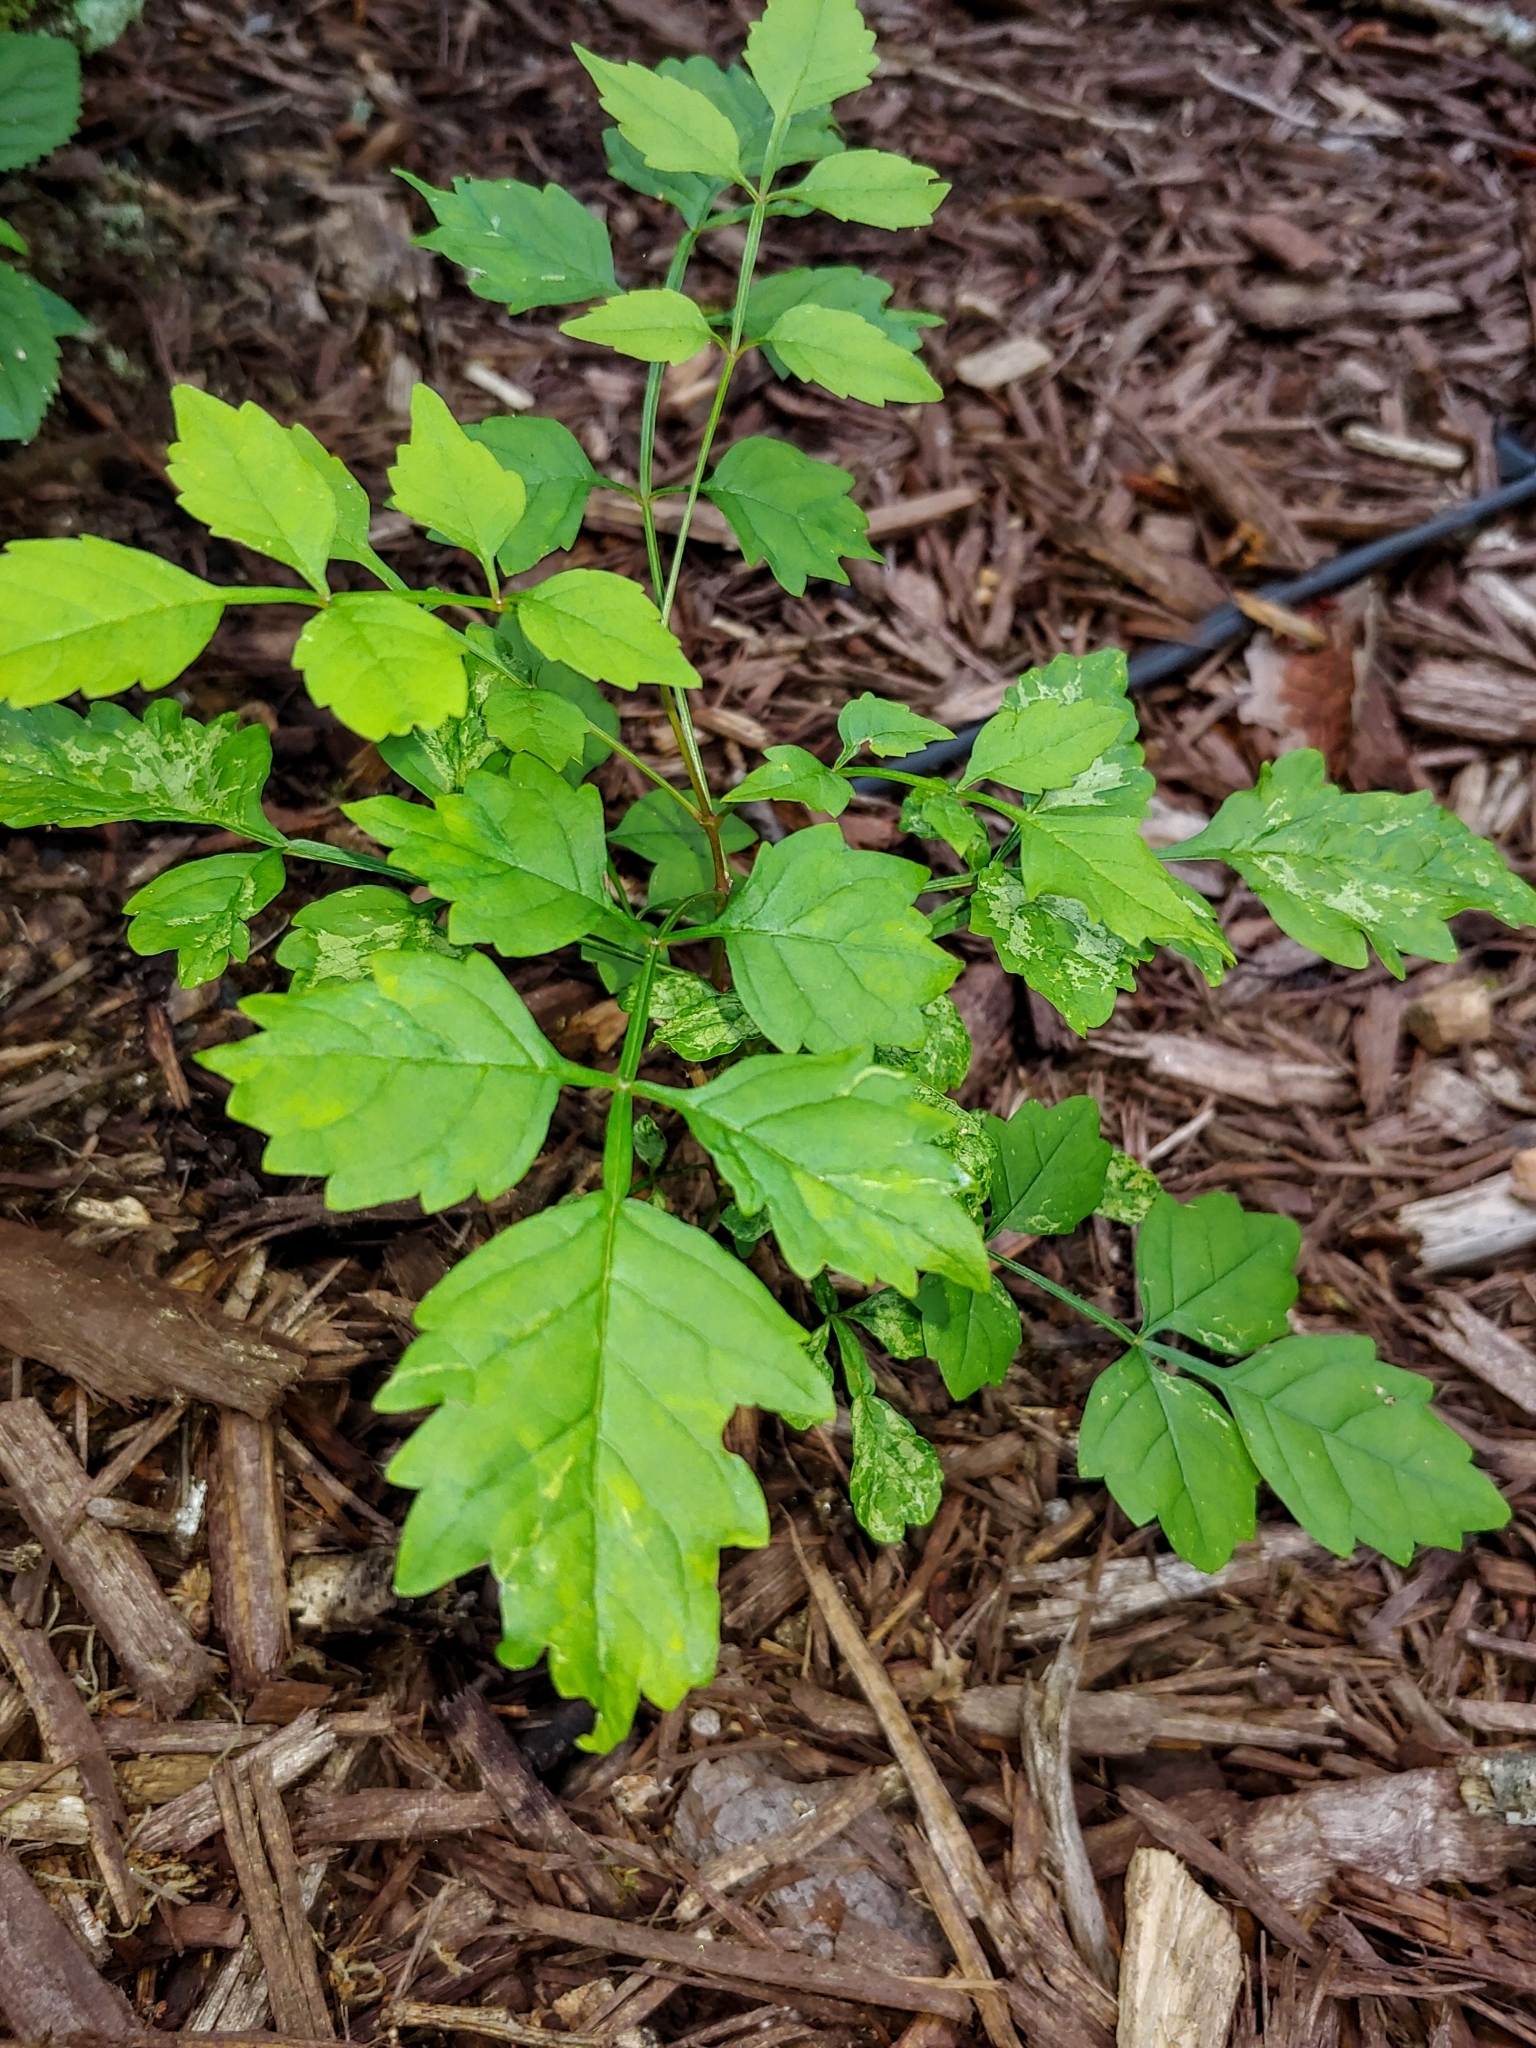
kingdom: Plantae
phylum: Tracheophyta
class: Magnoliopsida
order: Lamiales
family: Bignoniaceae
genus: Campsis
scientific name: Campsis radicans
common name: Trumpet-creeper
